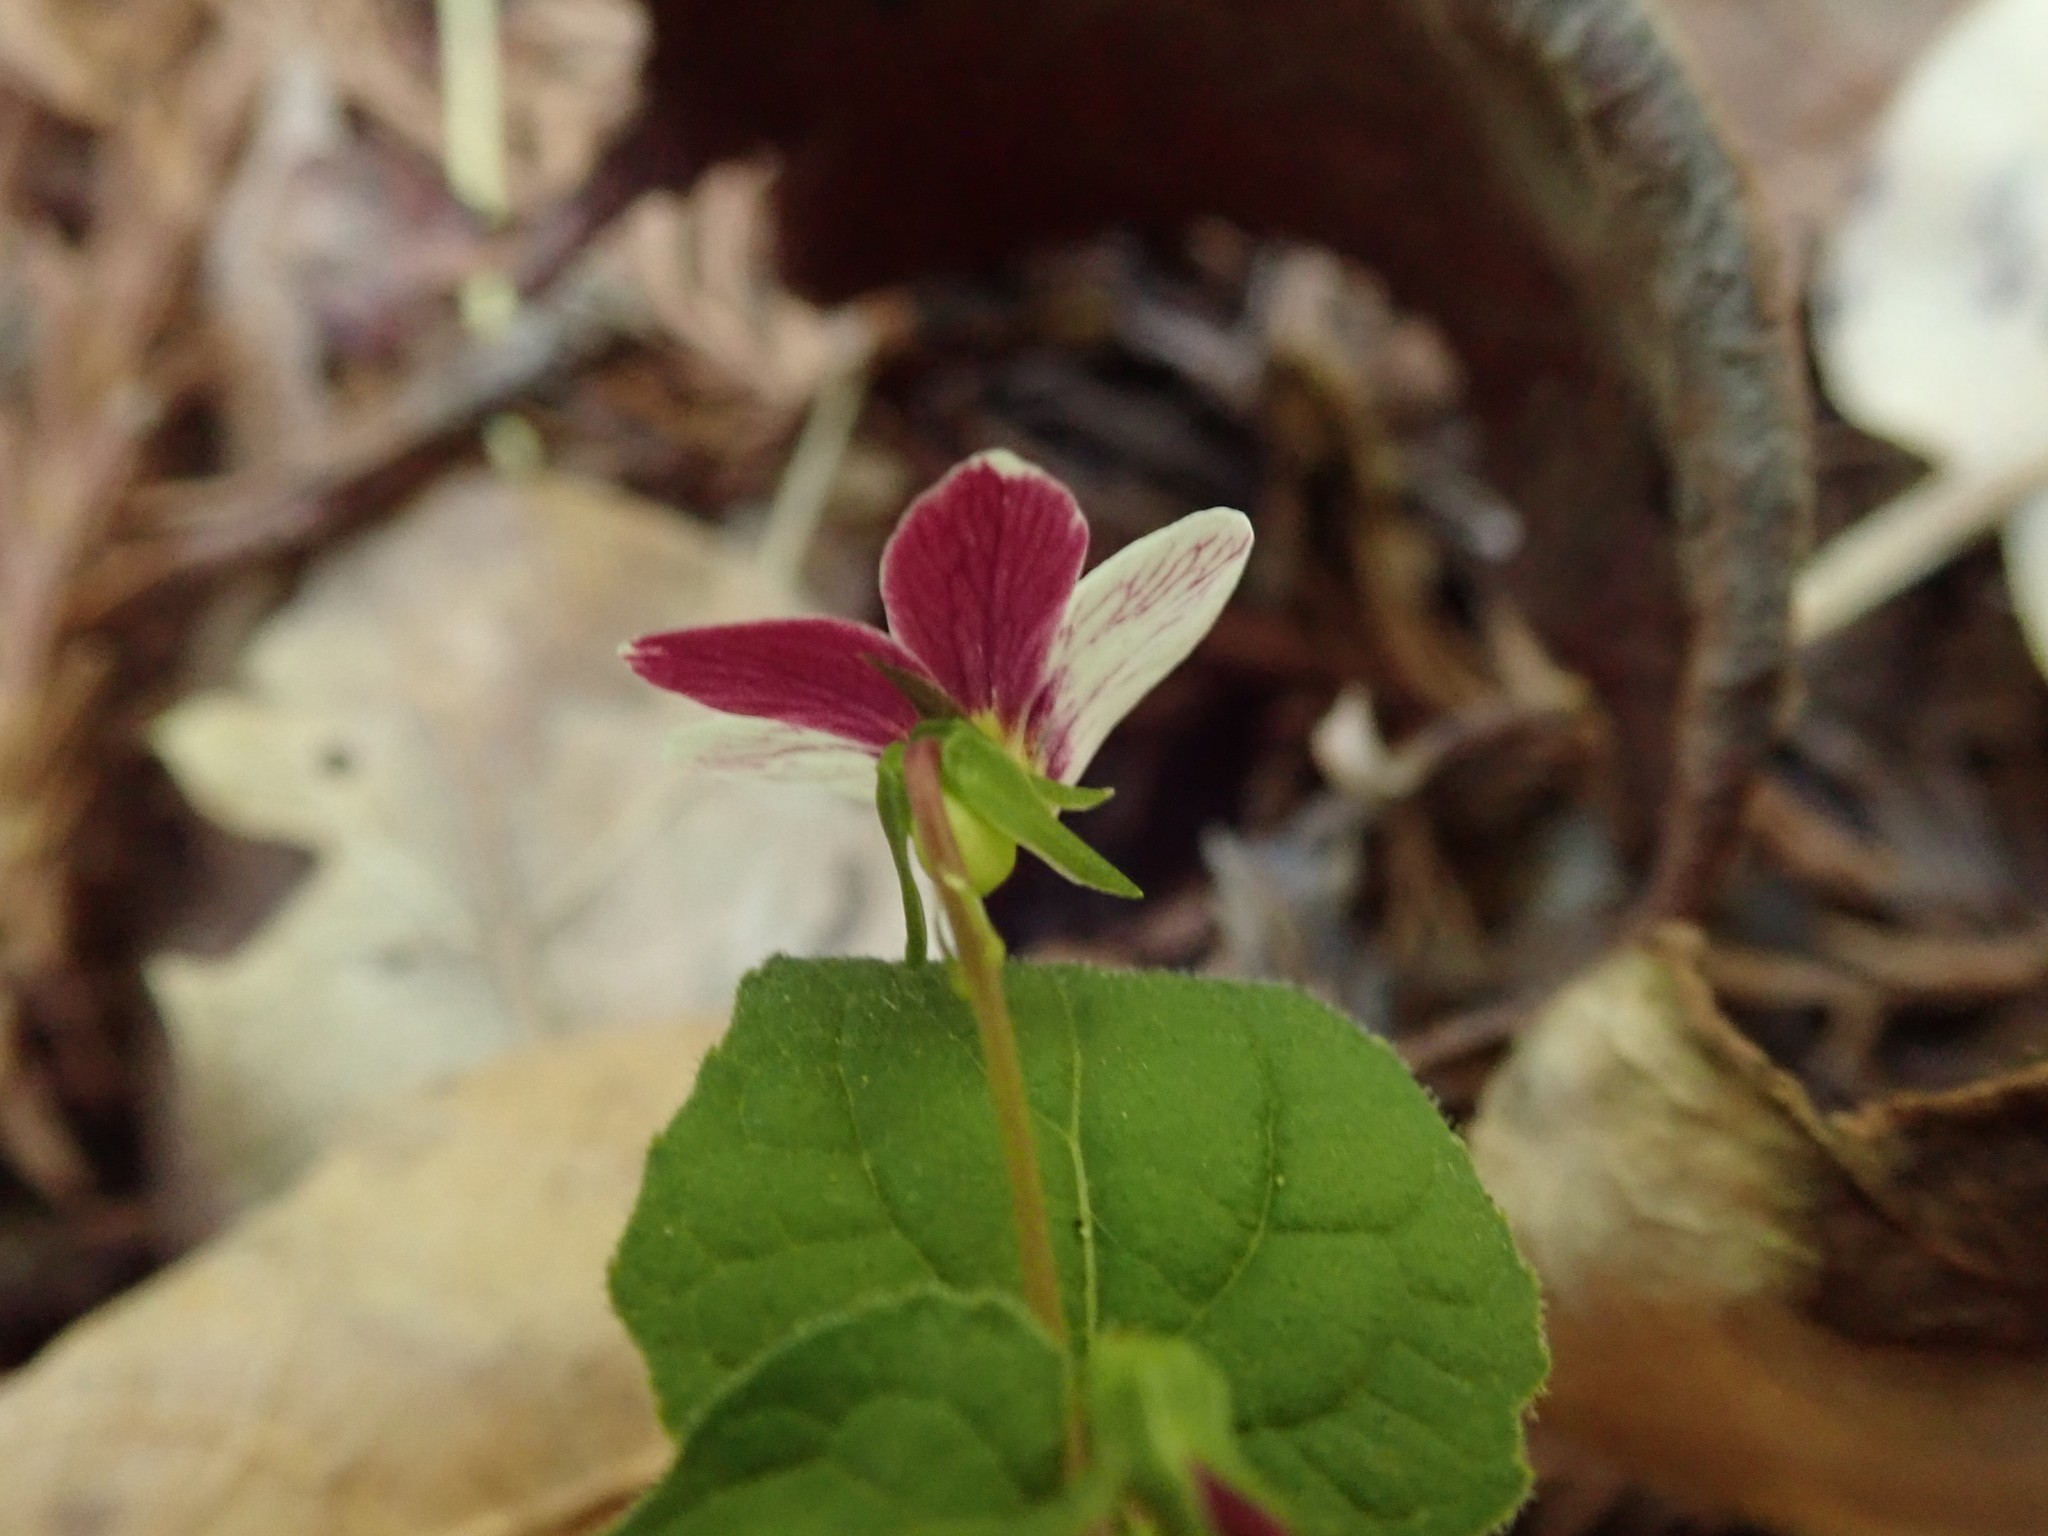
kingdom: Plantae
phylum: Tracheophyta
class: Magnoliopsida
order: Malpighiales
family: Violaceae
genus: Viola
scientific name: Viola ocellata
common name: Western heart's ease
